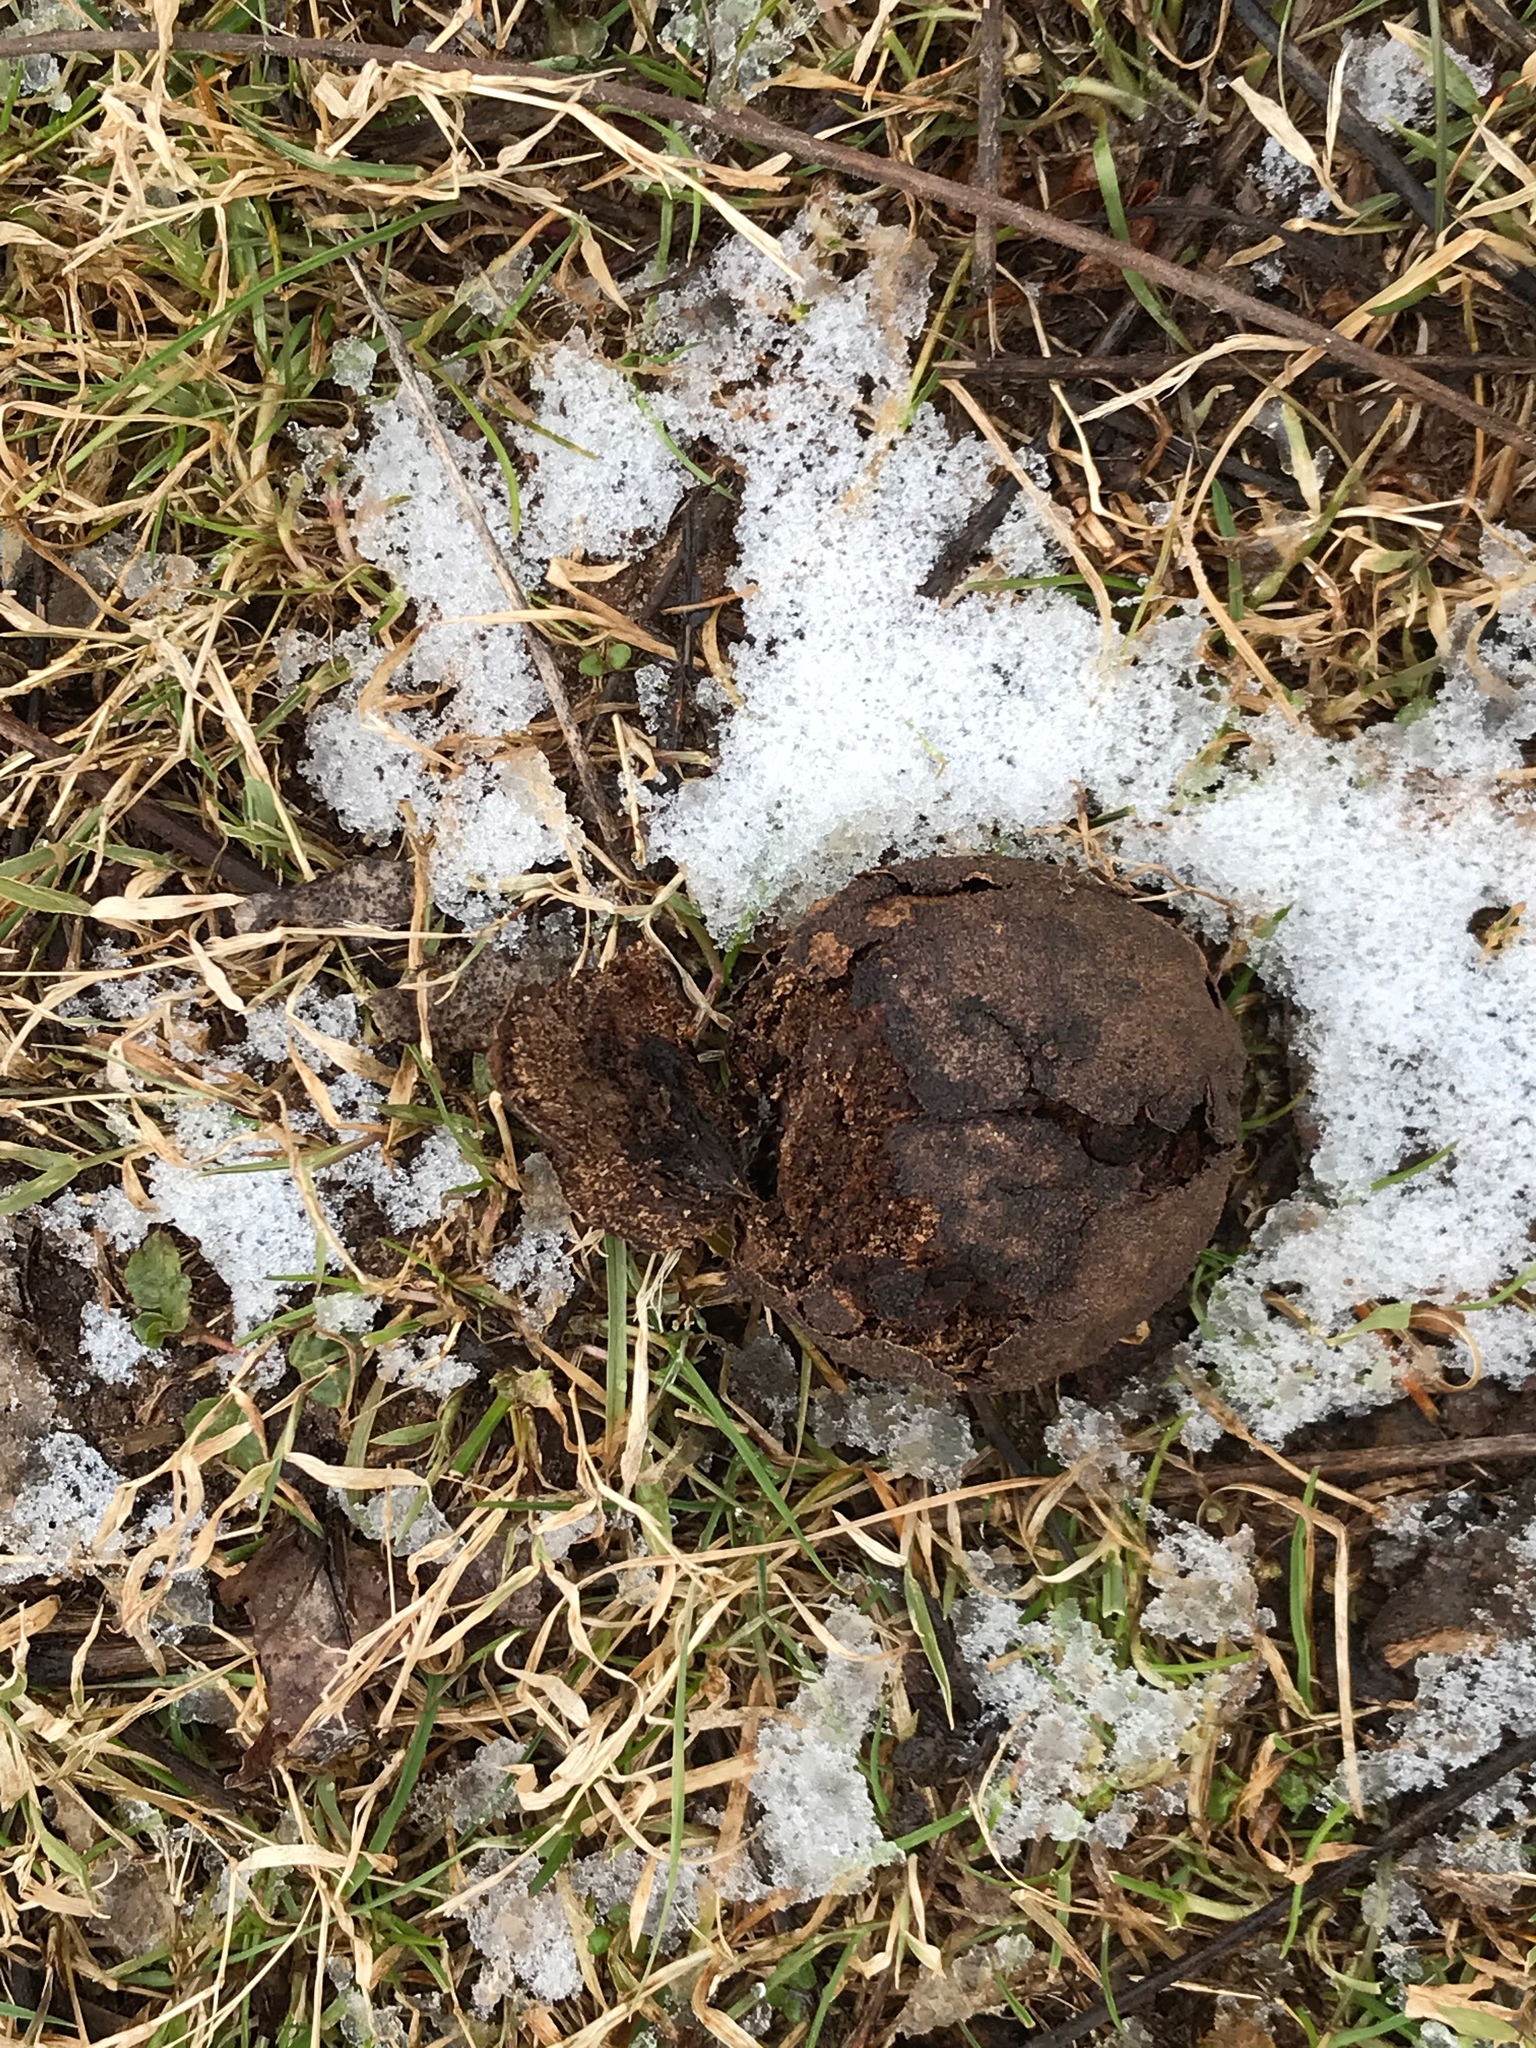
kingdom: Plantae
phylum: Tracheophyta
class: Magnoliopsida
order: Fagales
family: Juglandaceae
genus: Juglans
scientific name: Juglans nigra
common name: Black walnut
